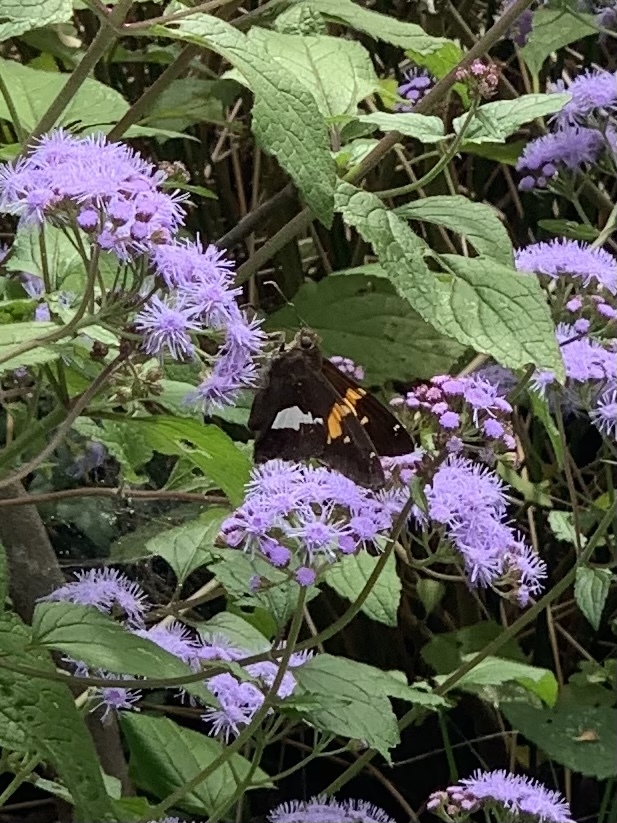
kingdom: Animalia
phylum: Arthropoda
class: Insecta
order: Lepidoptera
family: Hesperiidae
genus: Epargyreus
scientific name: Epargyreus clarus
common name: Silver-spotted skipper
